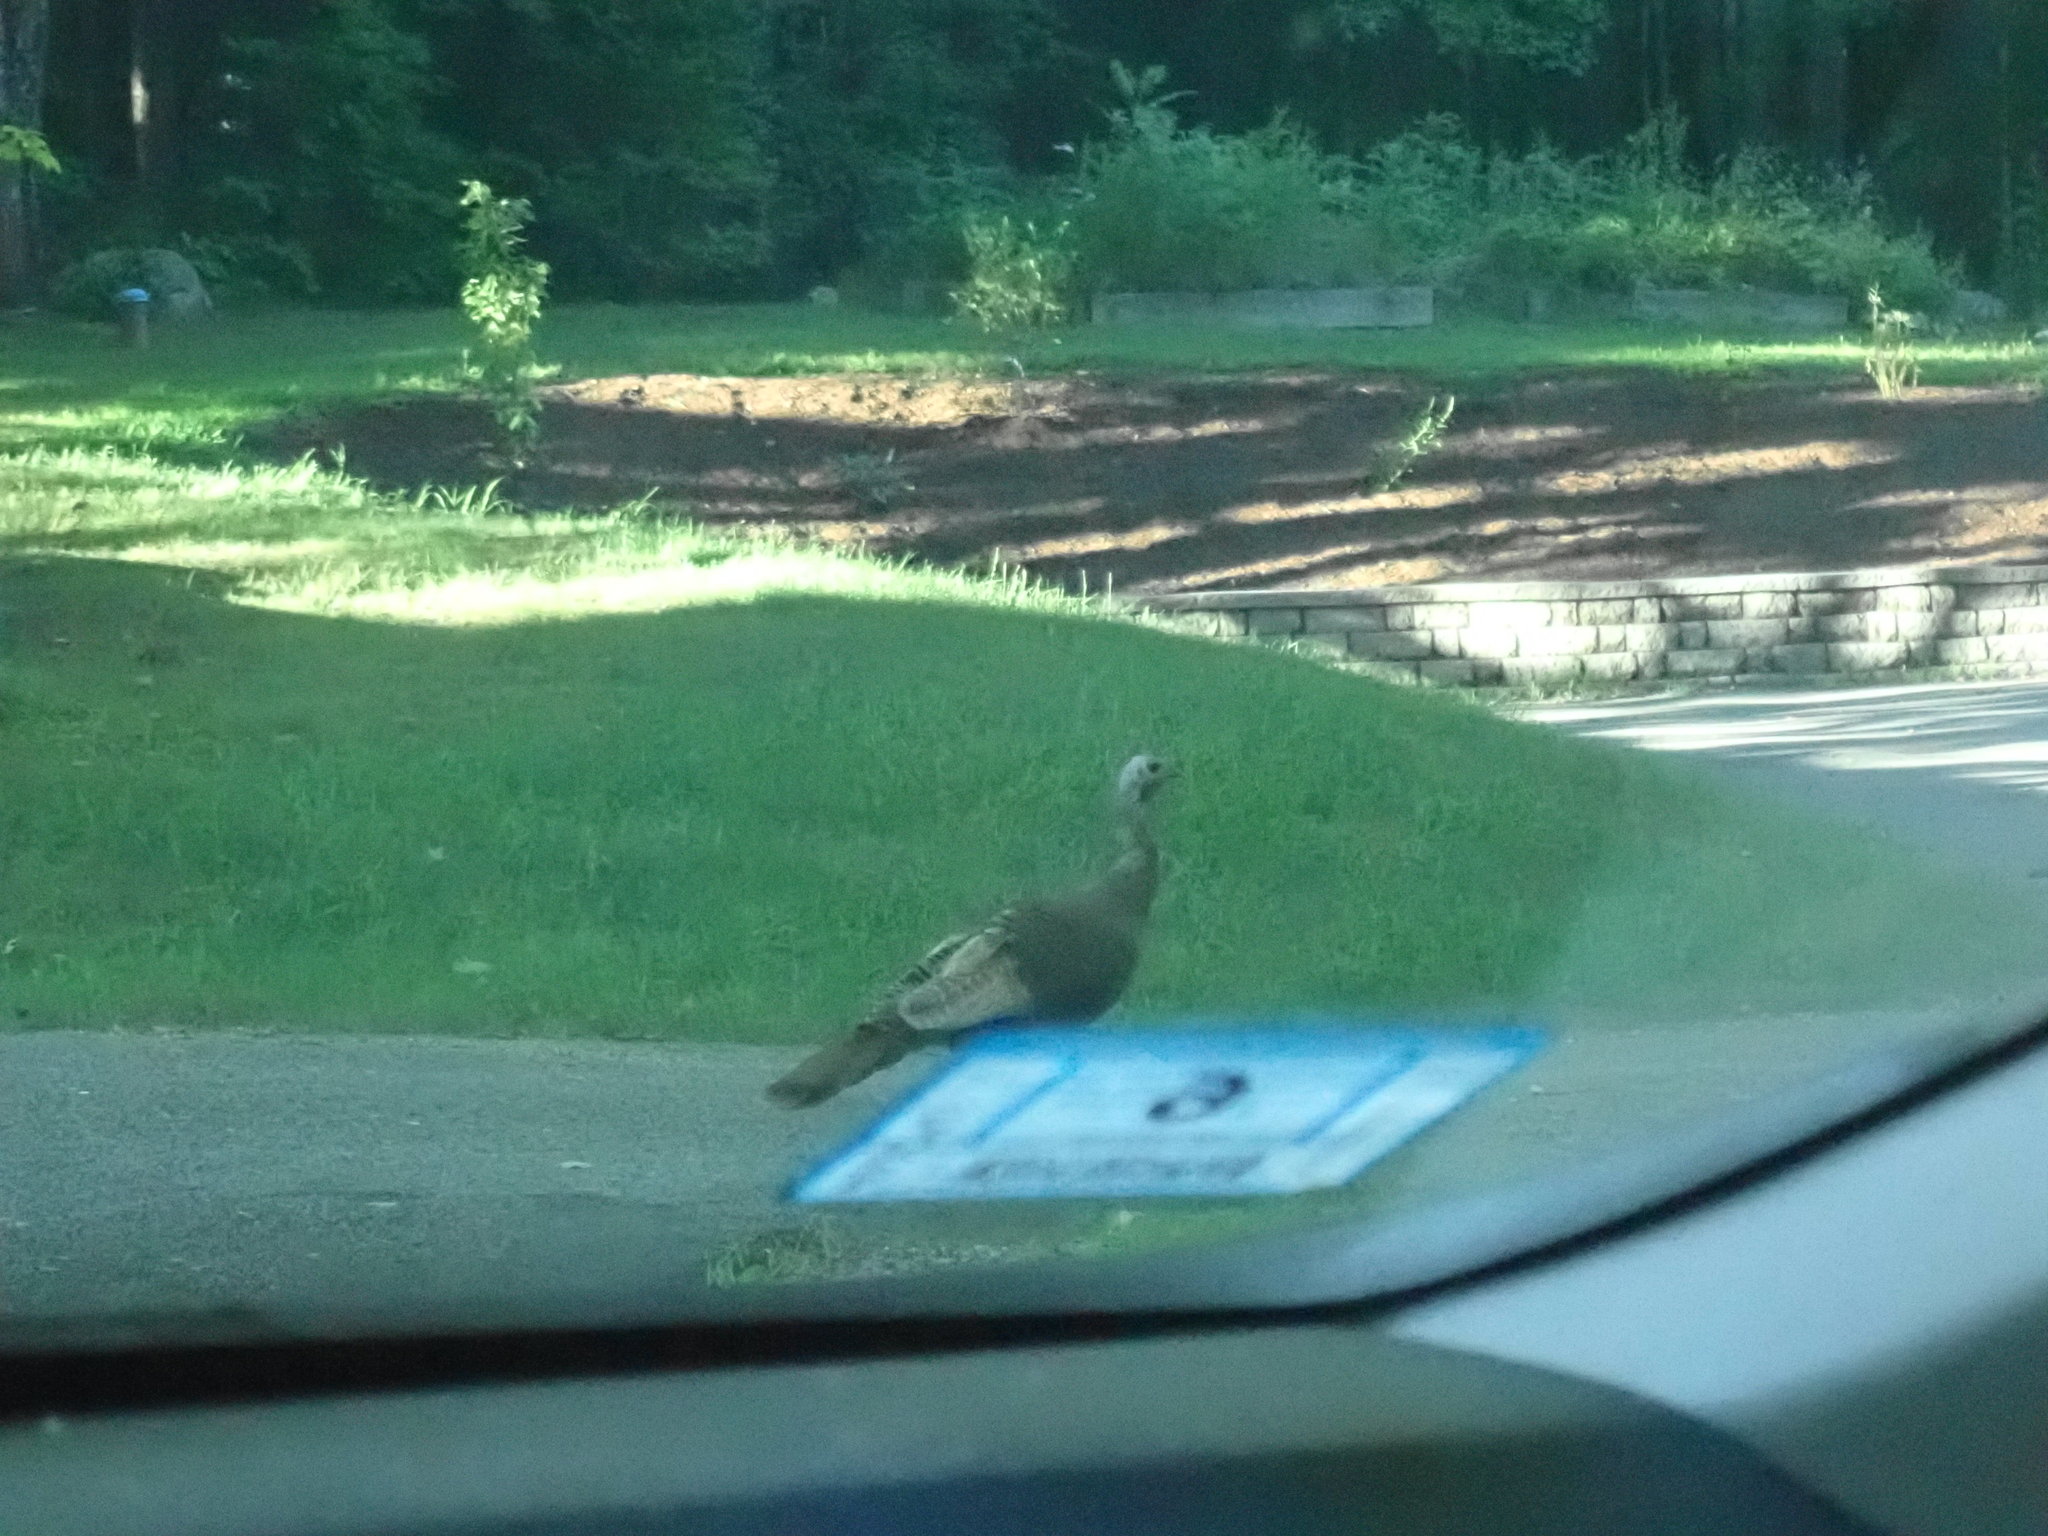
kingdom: Animalia
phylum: Chordata
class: Aves
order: Galliformes
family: Phasianidae
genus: Meleagris
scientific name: Meleagris gallopavo
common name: Wild turkey
